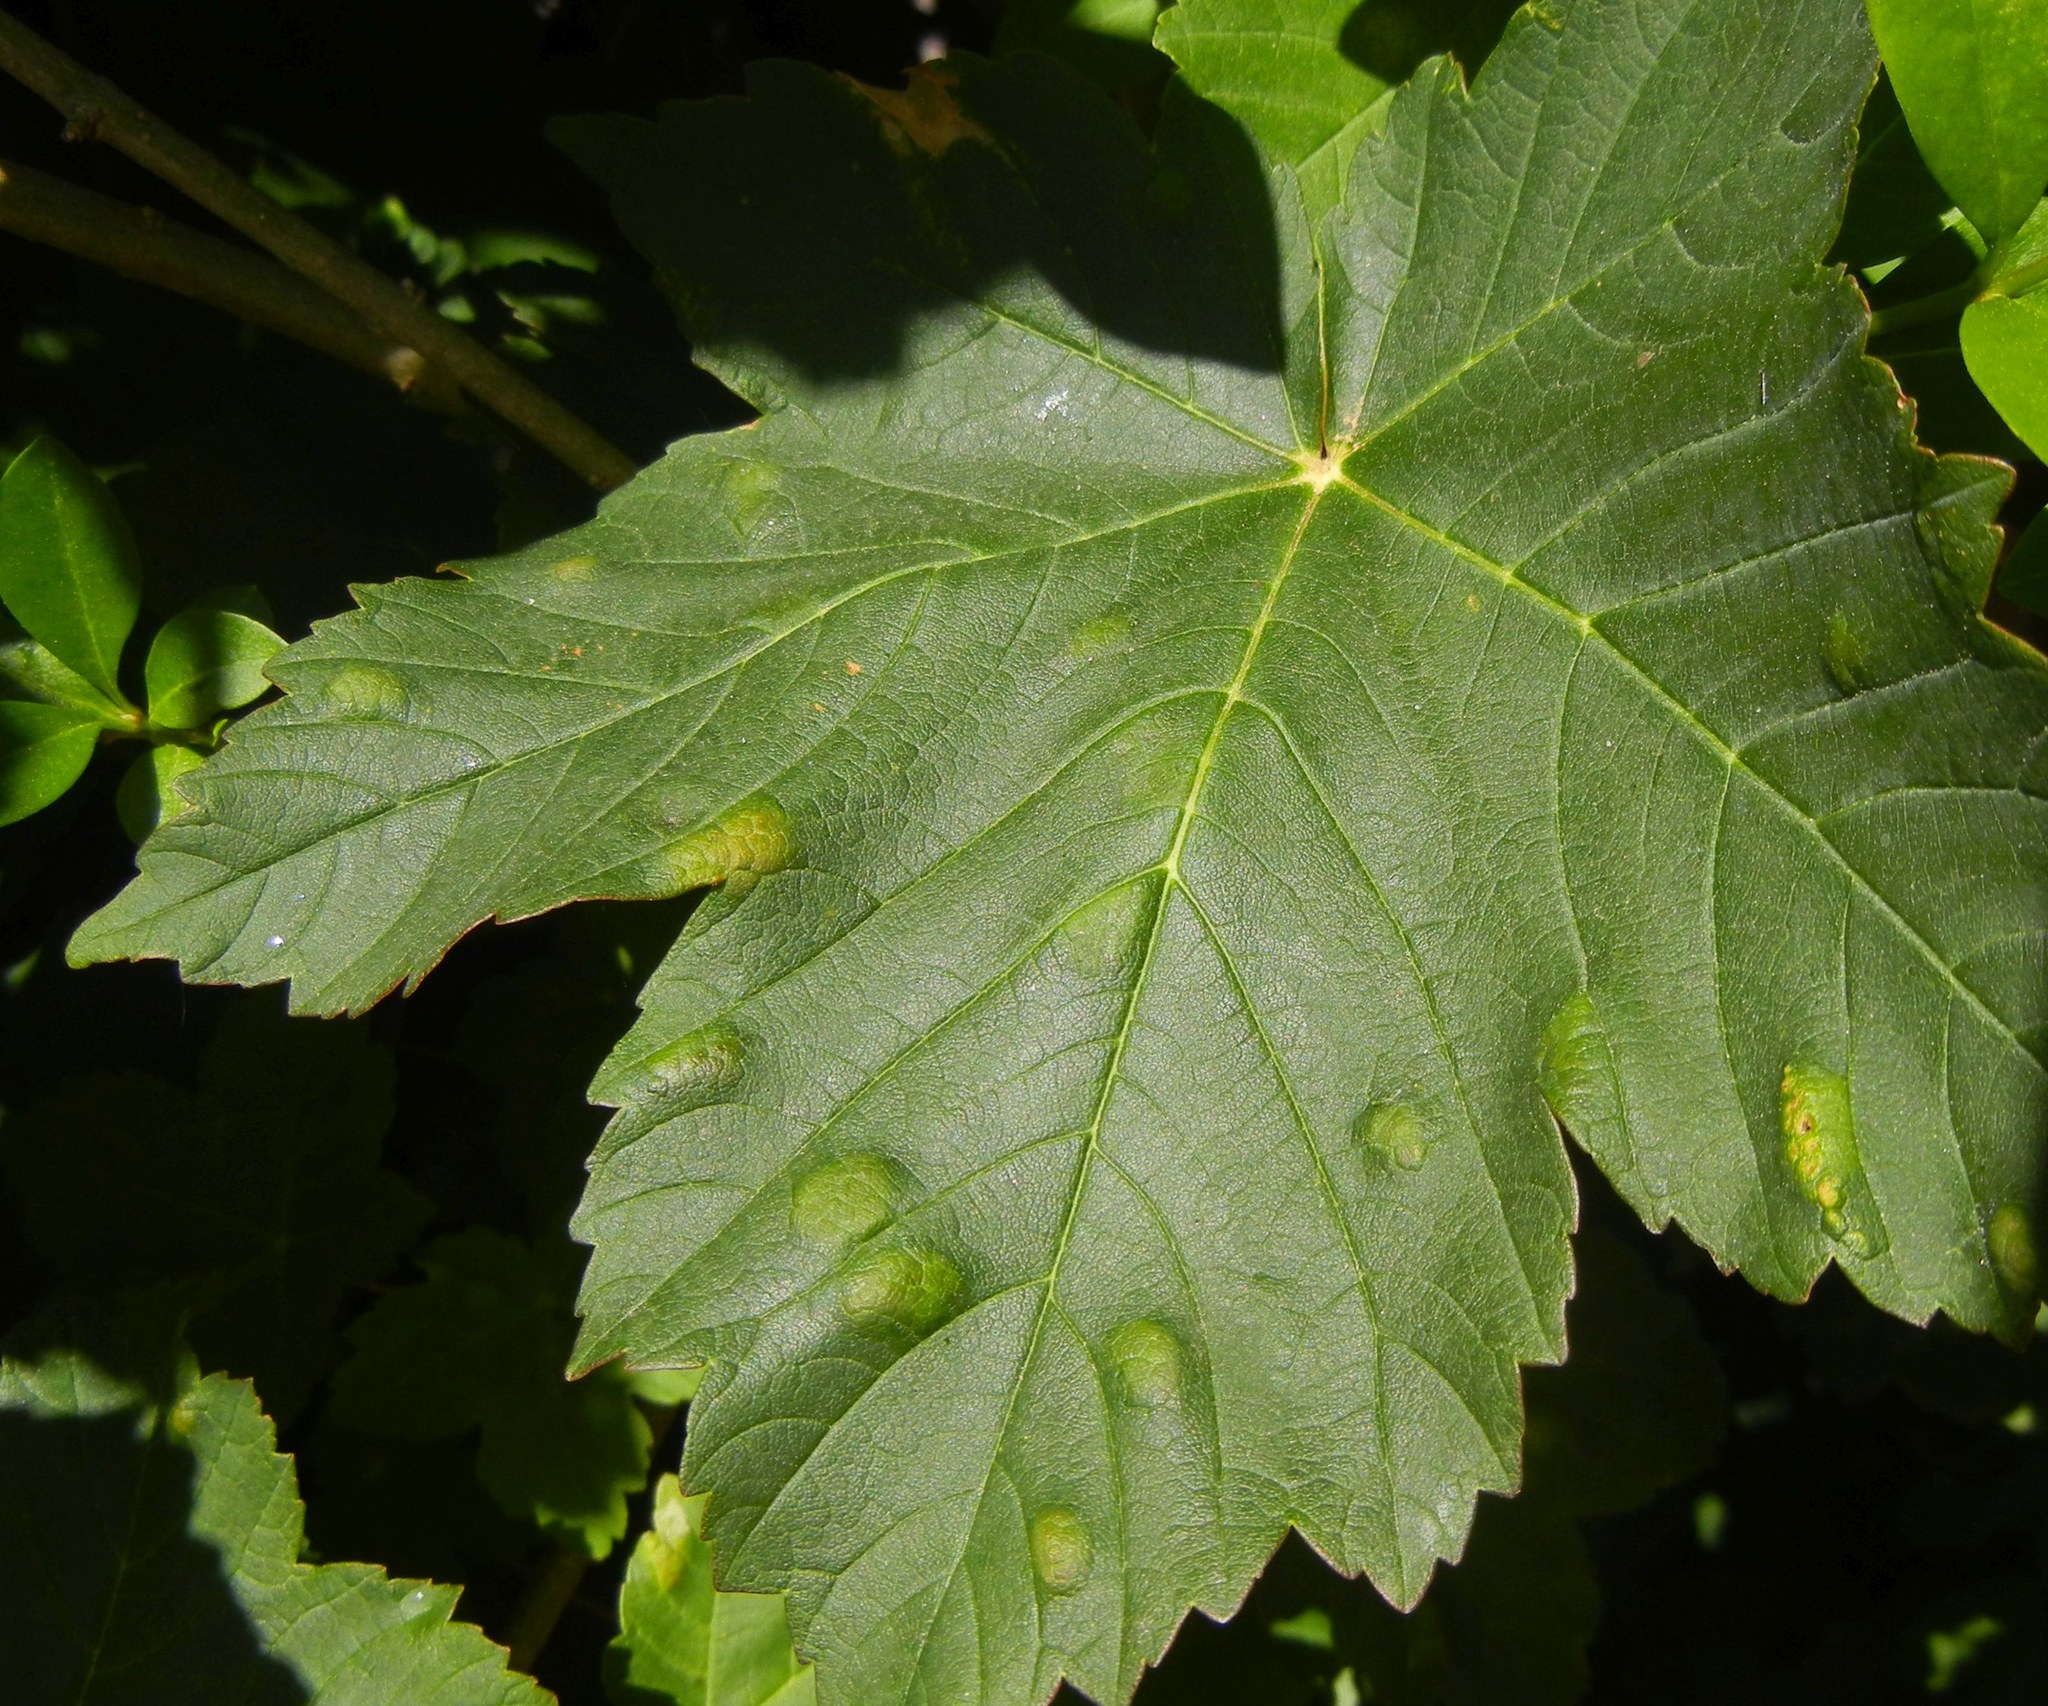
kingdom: Animalia
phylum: Arthropoda
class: Arachnida
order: Trombidiformes
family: Eriophyidae
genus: Aceria
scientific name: Aceria pseudoplatani
